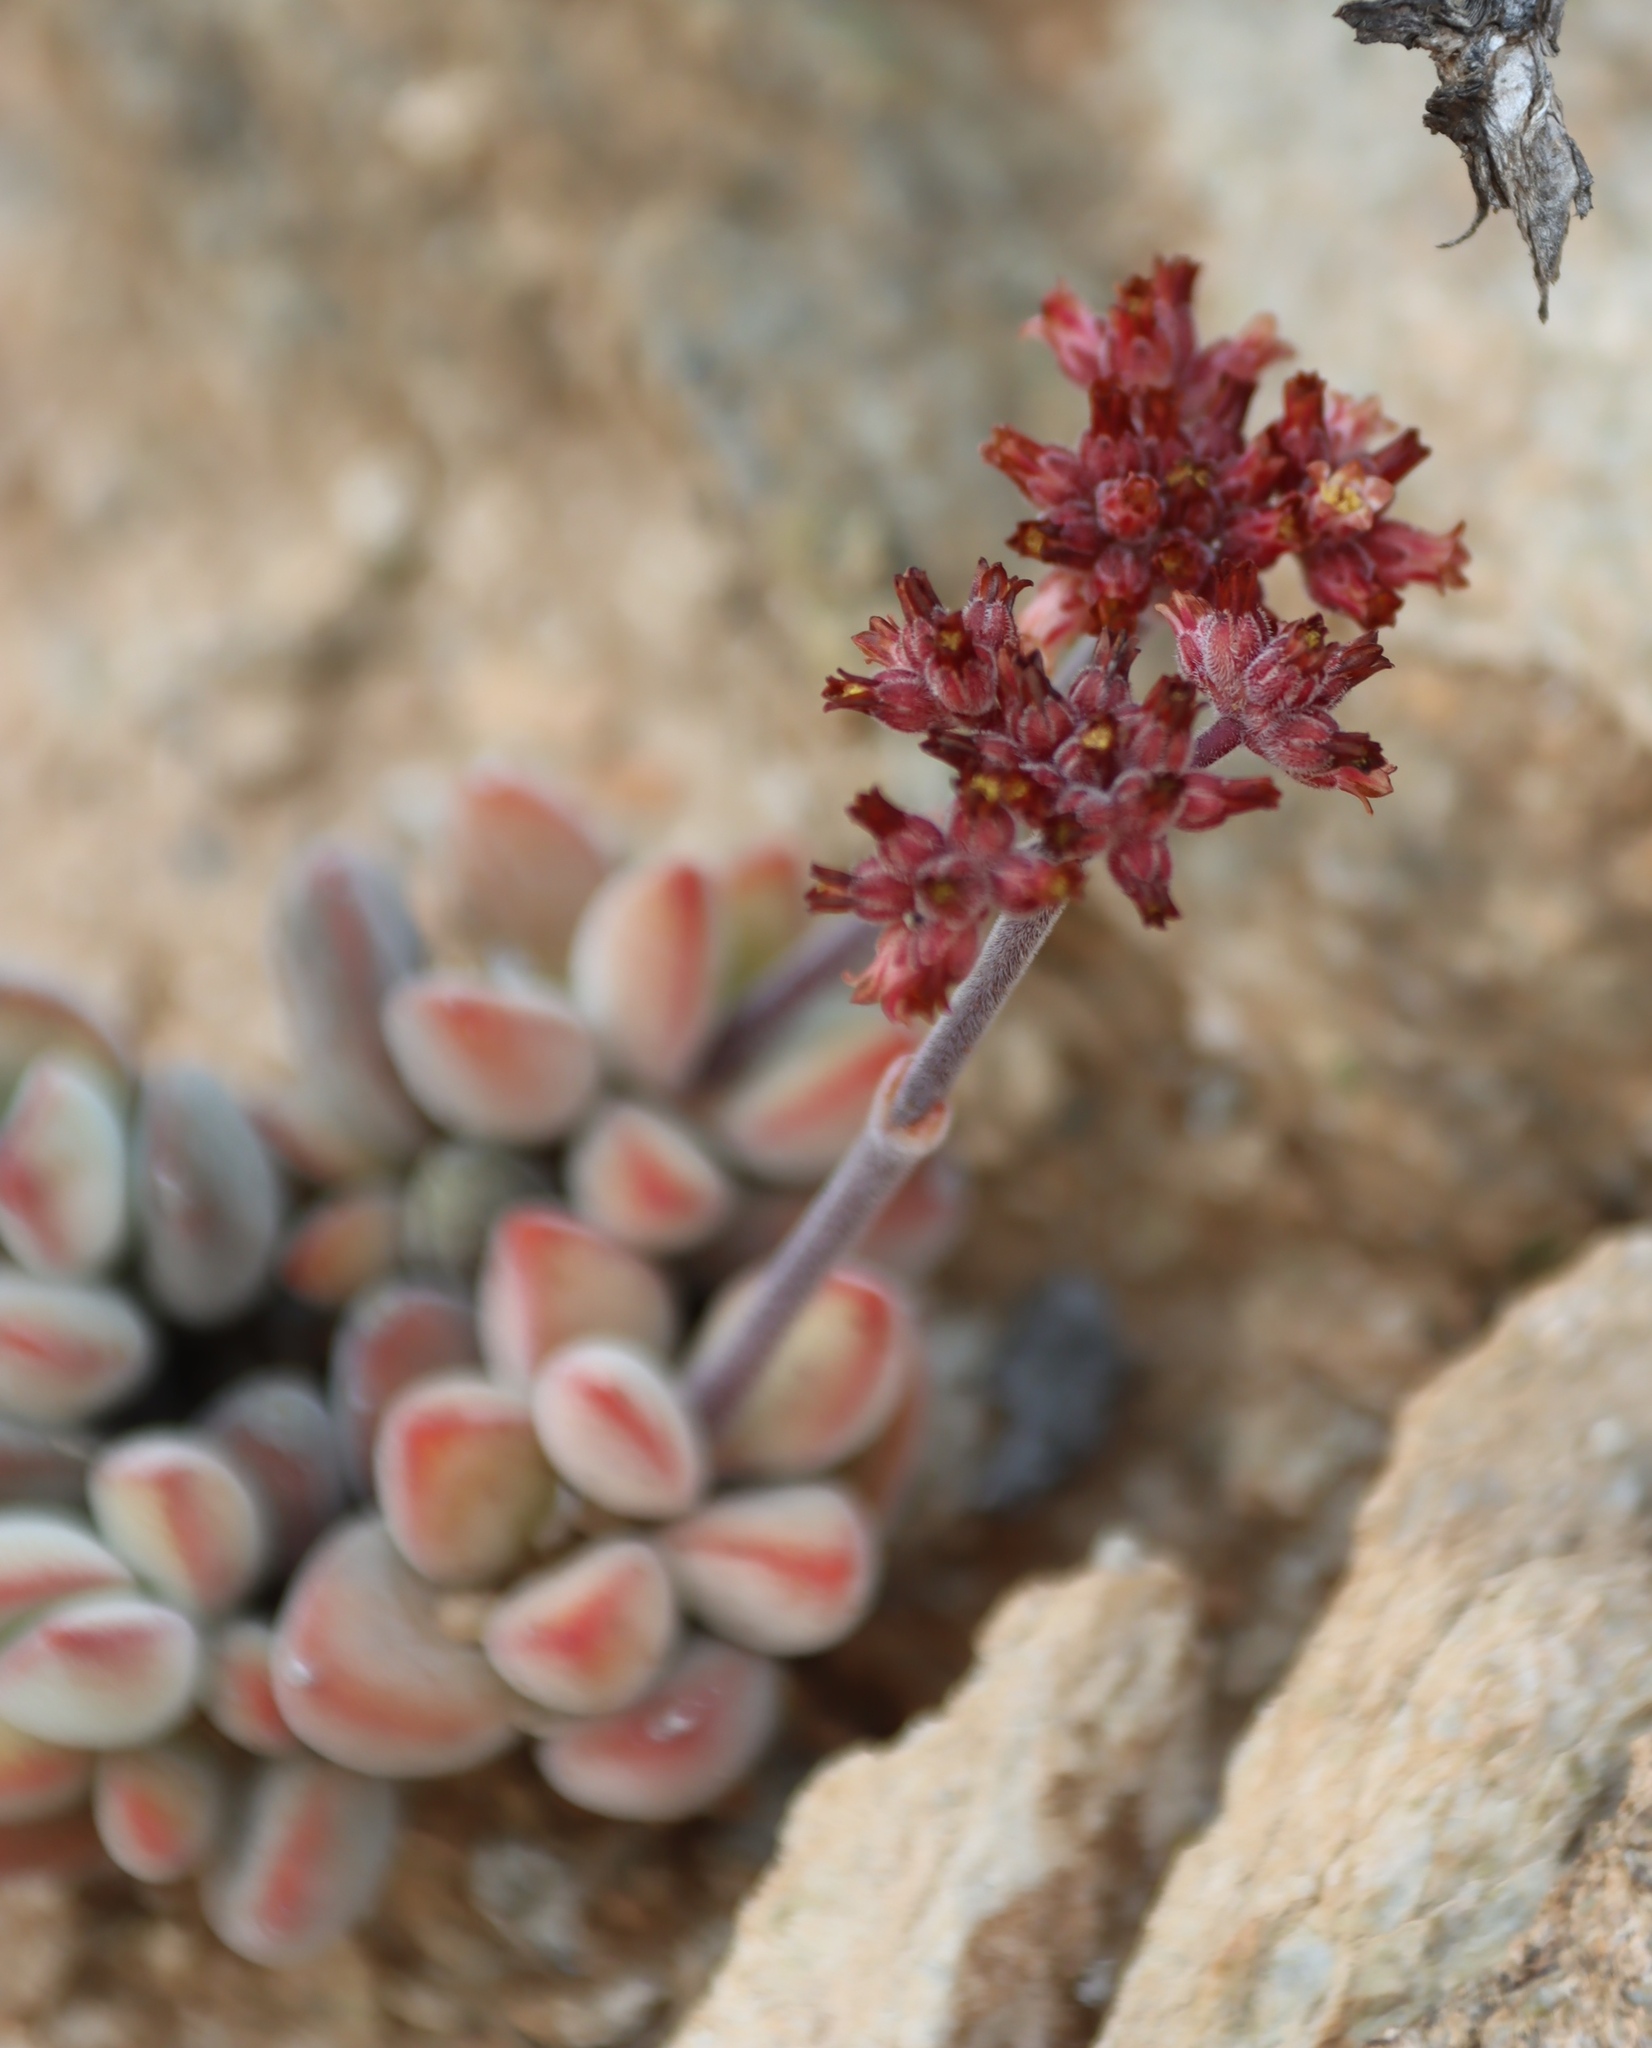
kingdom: Plantae
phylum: Tracheophyta
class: Magnoliopsida
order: Saxifragales
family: Crassulaceae
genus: Crassula
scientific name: Crassula sericea
